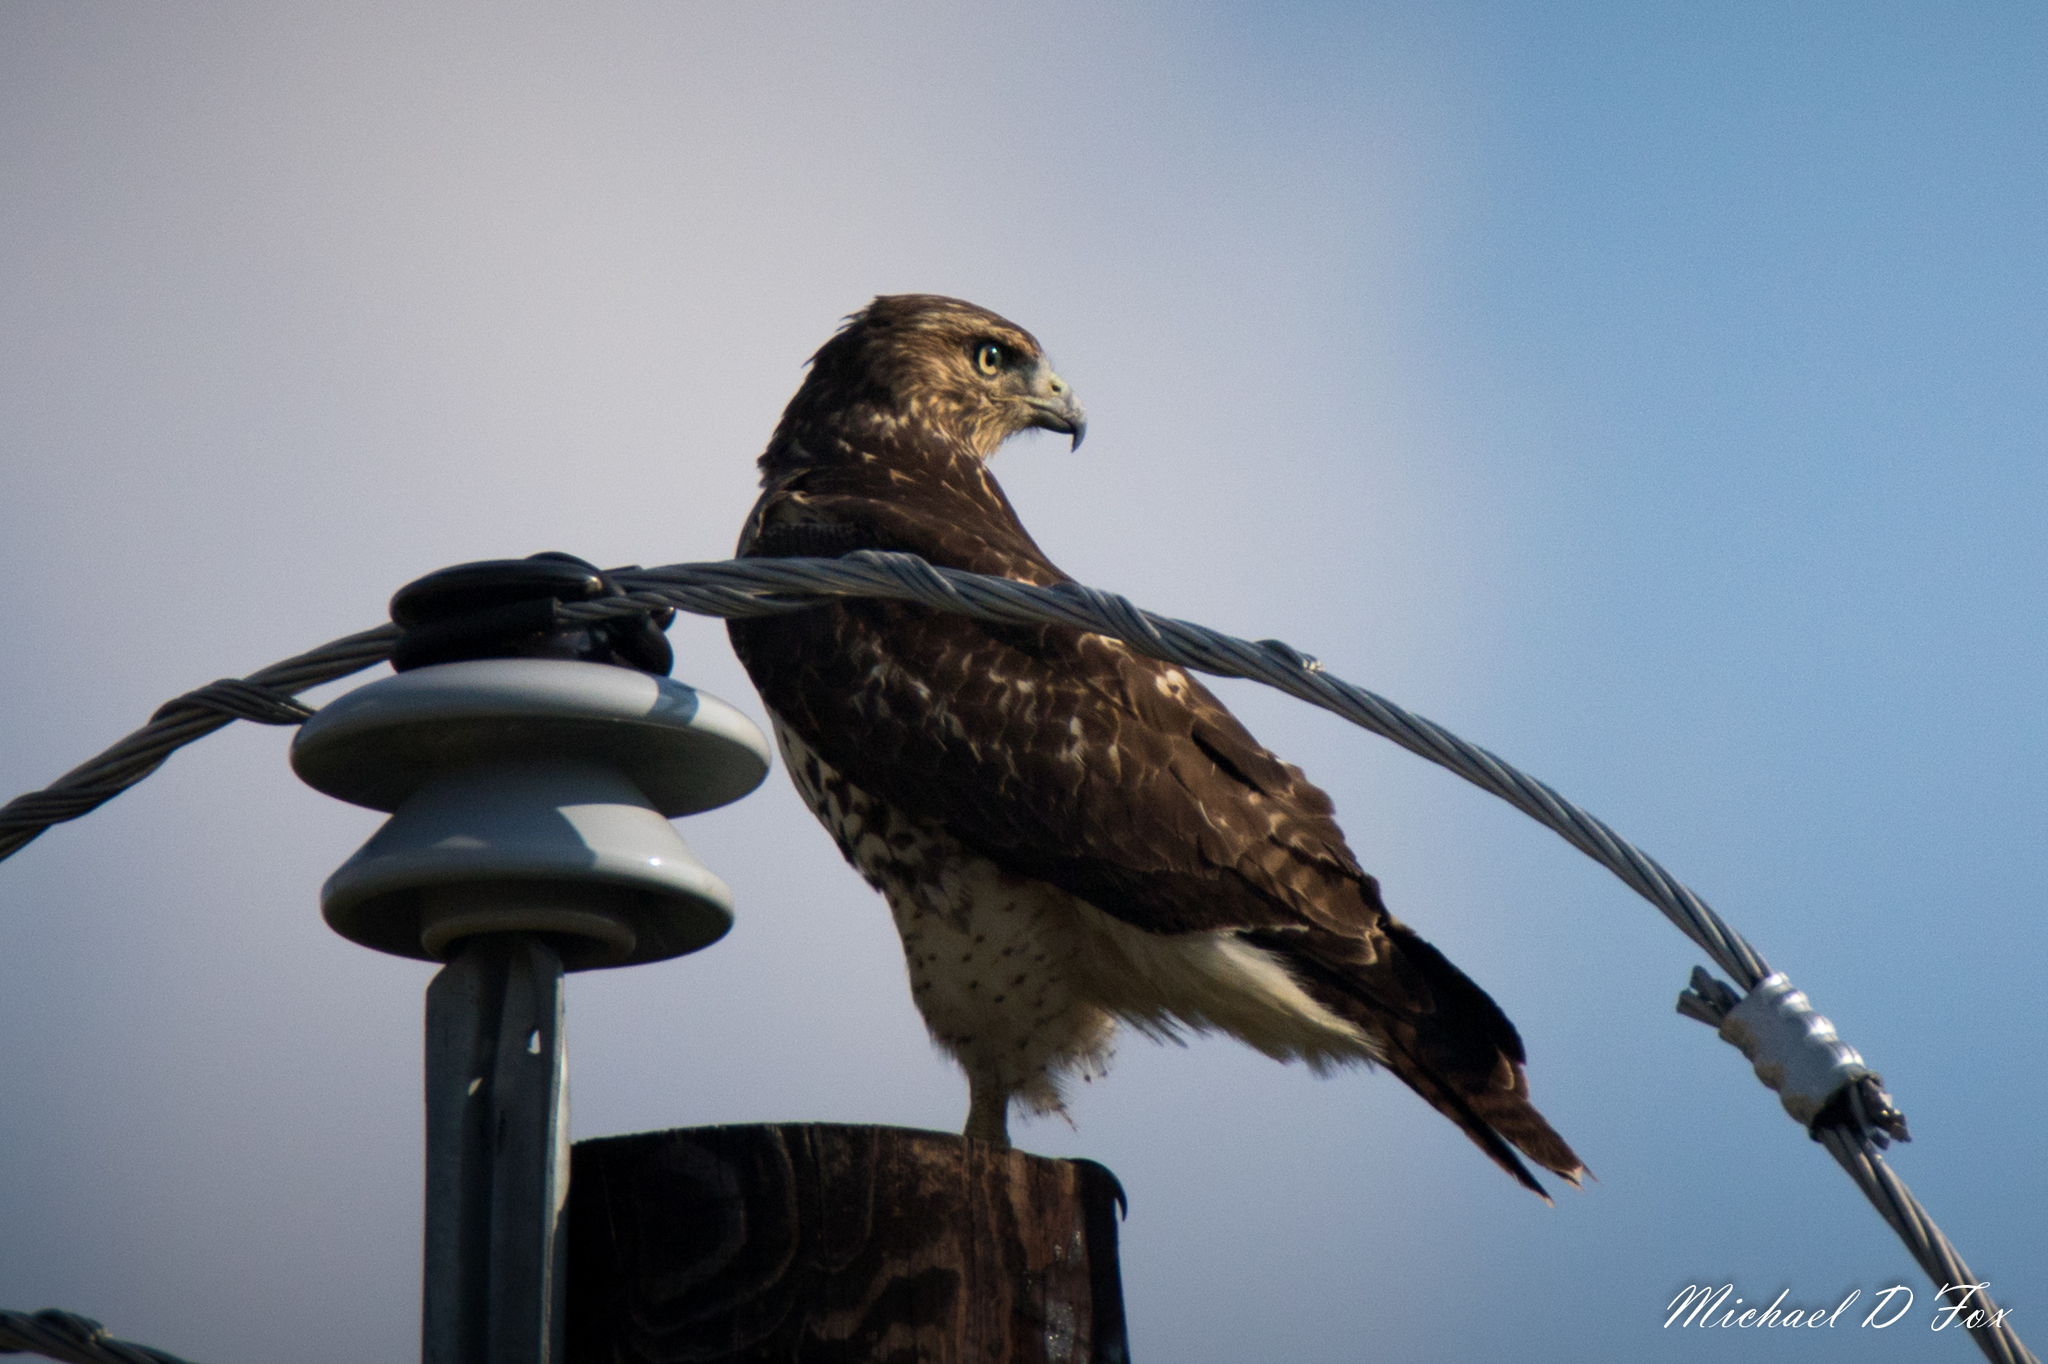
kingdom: Animalia
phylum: Chordata
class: Aves
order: Accipitriformes
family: Accipitridae
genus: Buteo
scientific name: Buteo jamaicensis
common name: Red-tailed hawk
